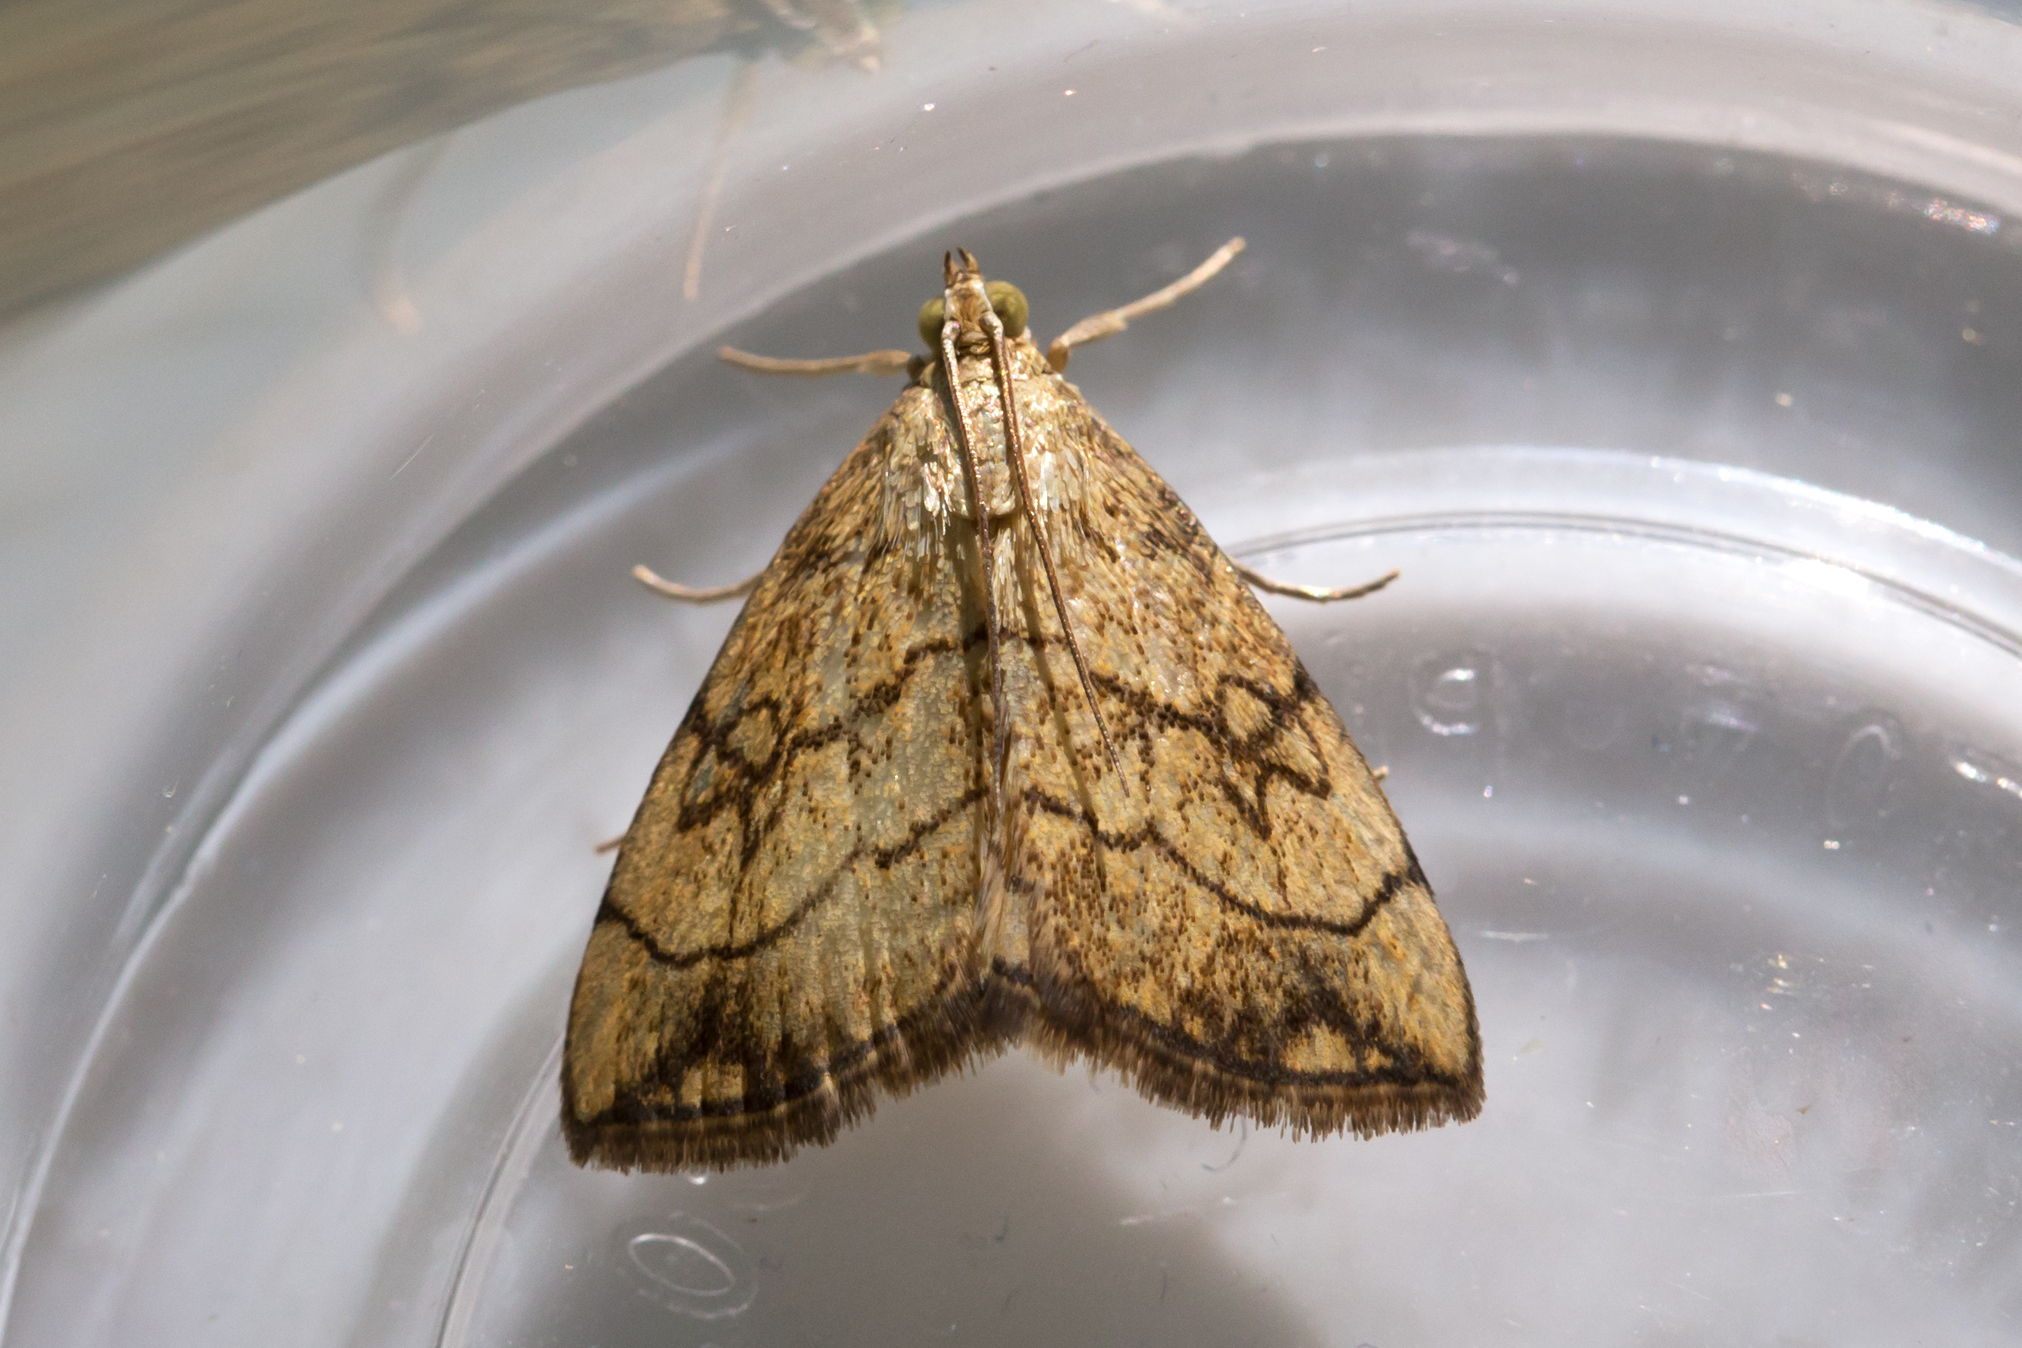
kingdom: Animalia
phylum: Arthropoda
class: Insecta
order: Lepidoptera
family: Crambidae
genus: Evergestis
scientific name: Evergestis pallidata
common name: Chequered pearl
